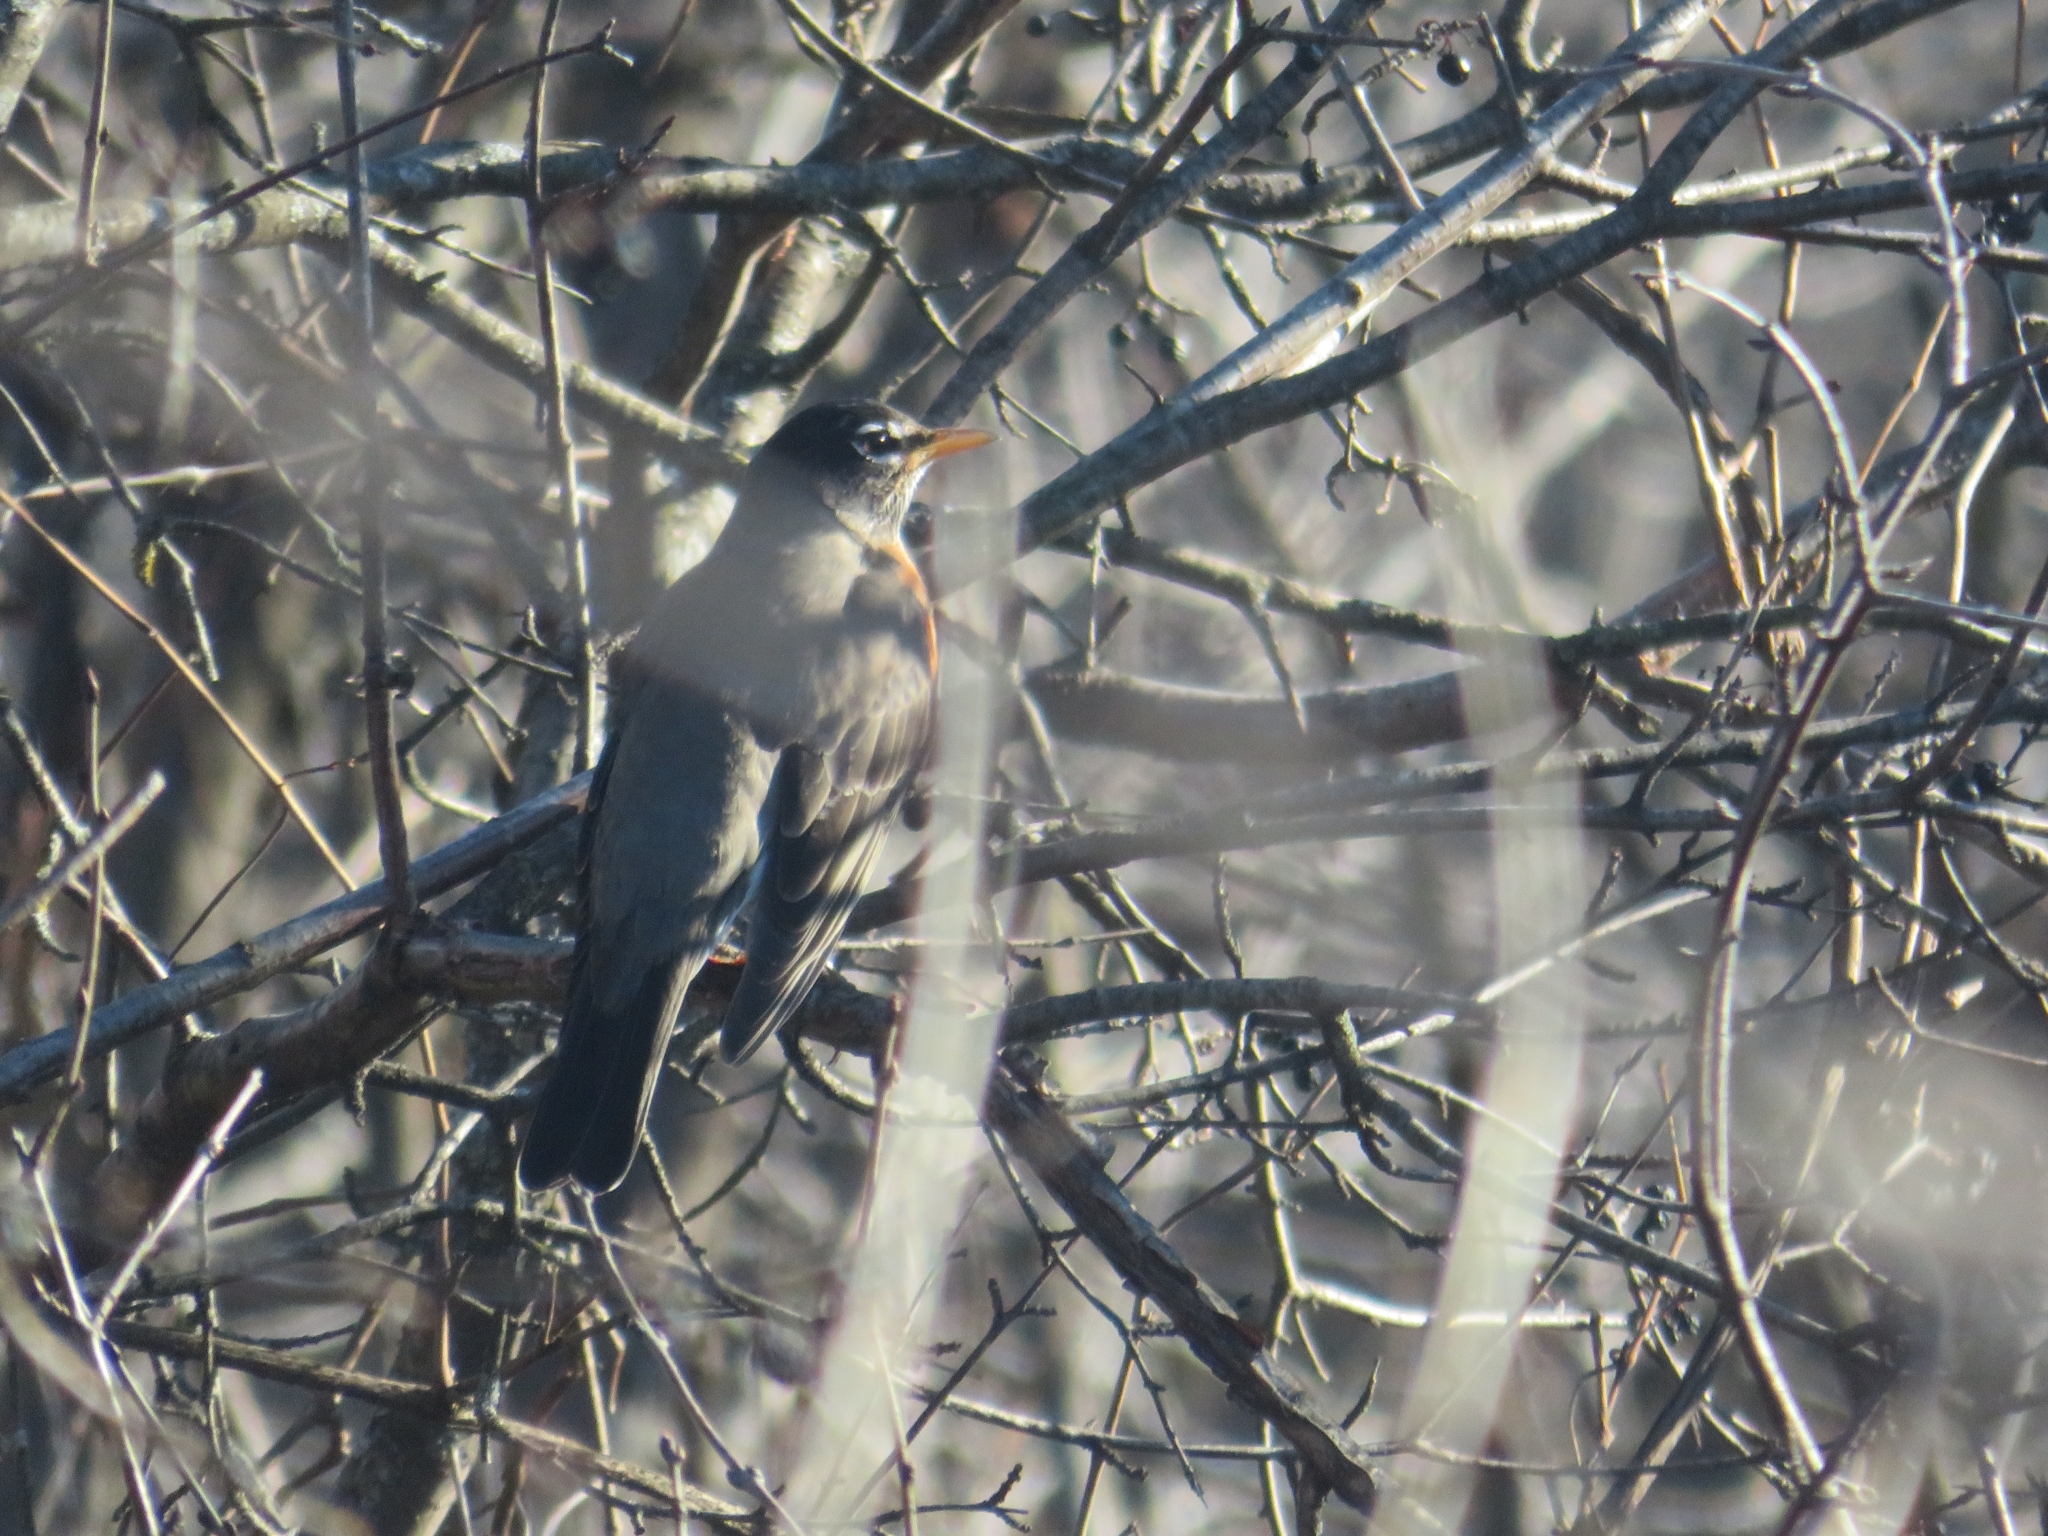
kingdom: Animalia
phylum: Chordata
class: Aves
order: Passeriformes
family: Turdidae
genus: Turdus
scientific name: Turdus migratorius
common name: American robin
